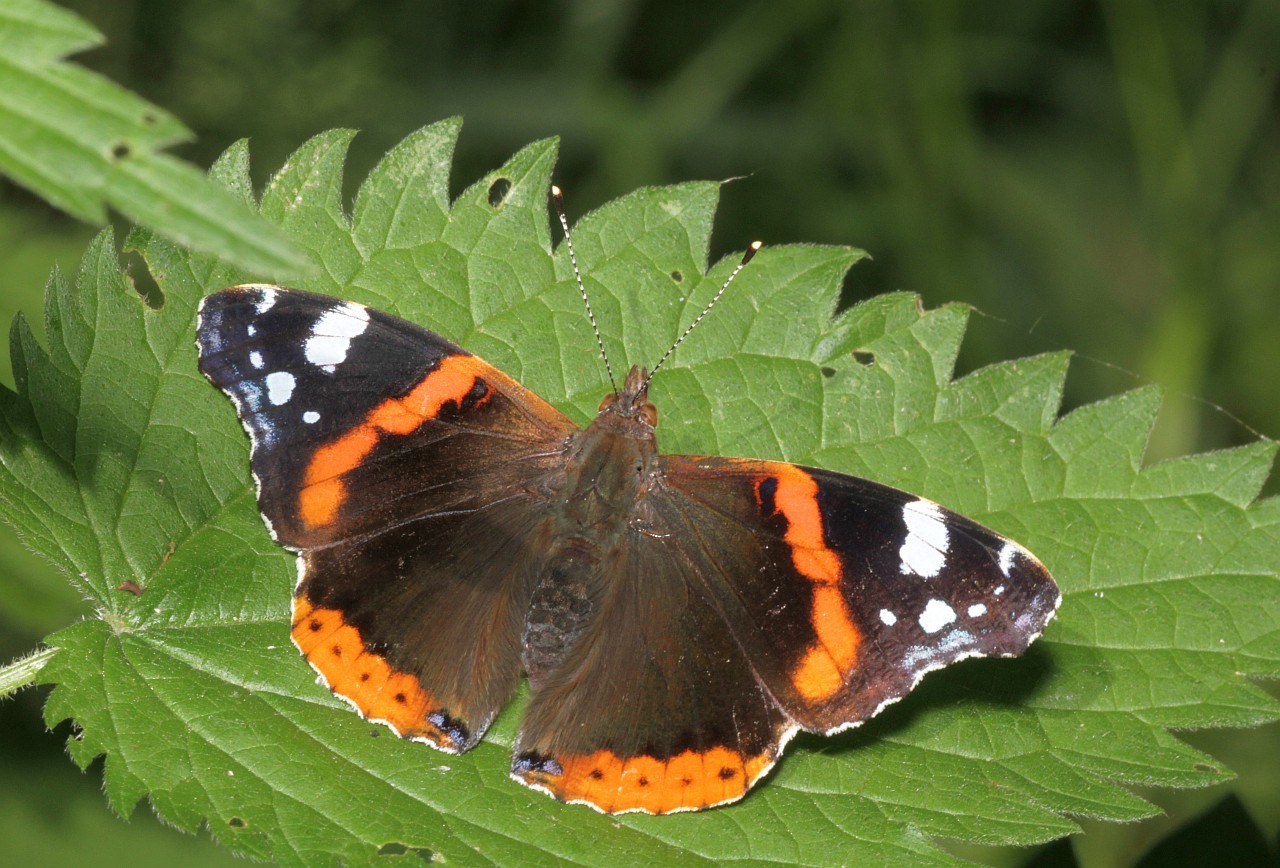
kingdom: Animalia
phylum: Arthropoda
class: Insecta
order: Lepidoptera
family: Nymphalidae
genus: Vanessa
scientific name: Vanessa atalanta
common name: Red admiral
